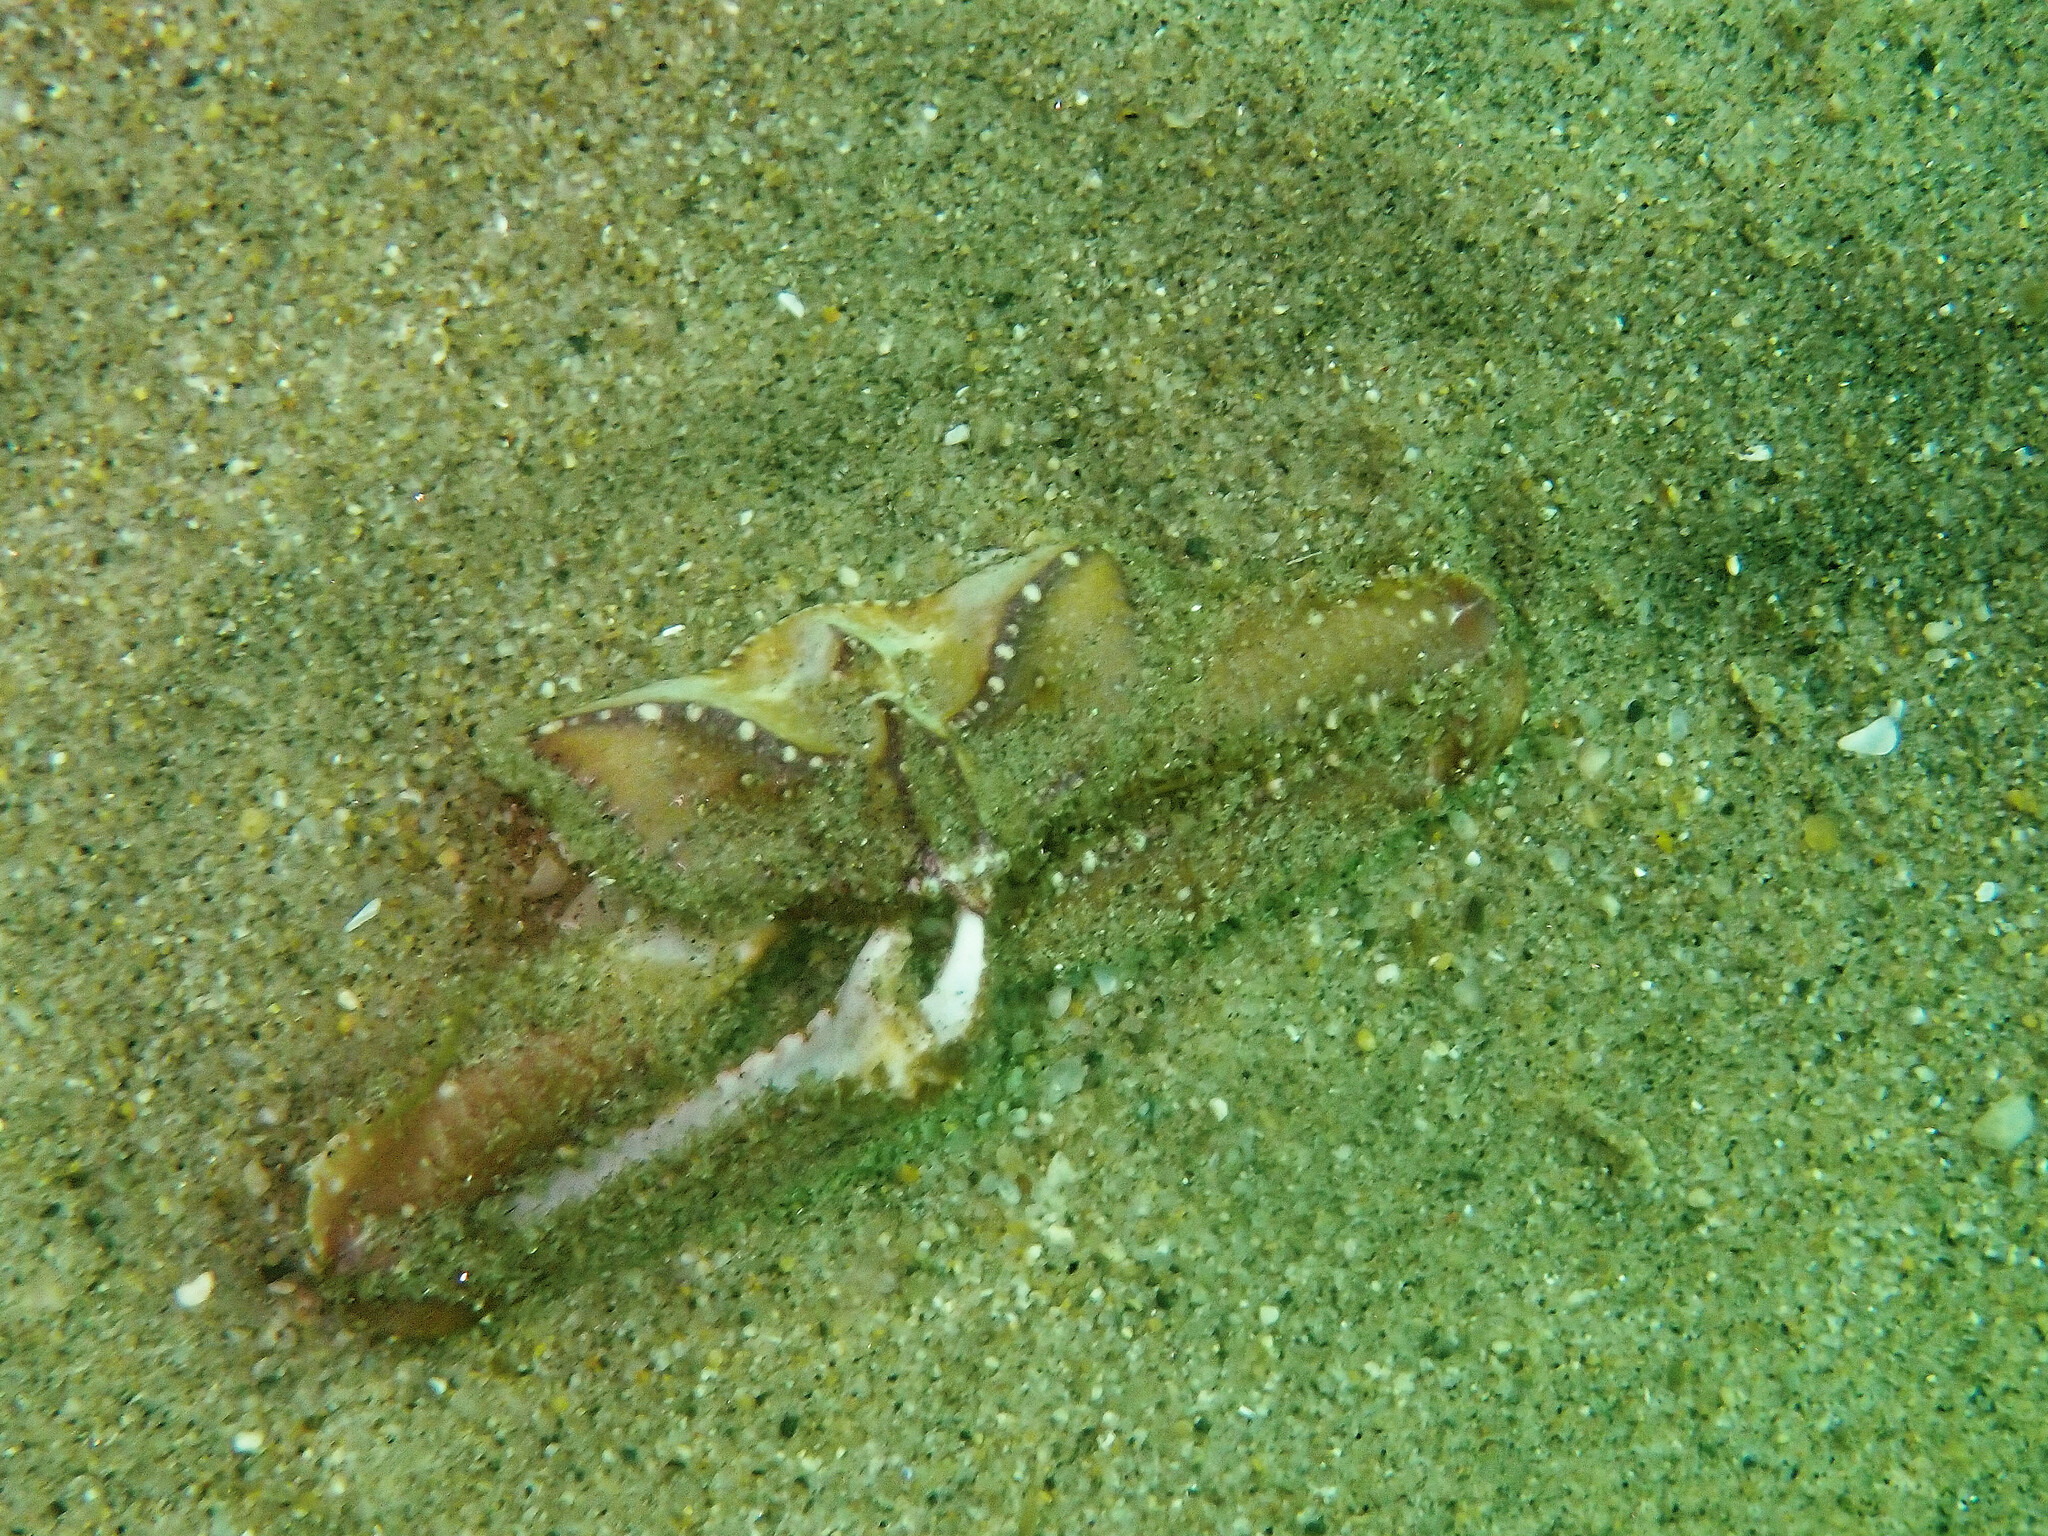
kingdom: Animalia
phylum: Arthropoda
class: Malacostraca
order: Decapoda
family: Parthenopidae
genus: Latulambrus
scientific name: Latulambrus occidentalis
